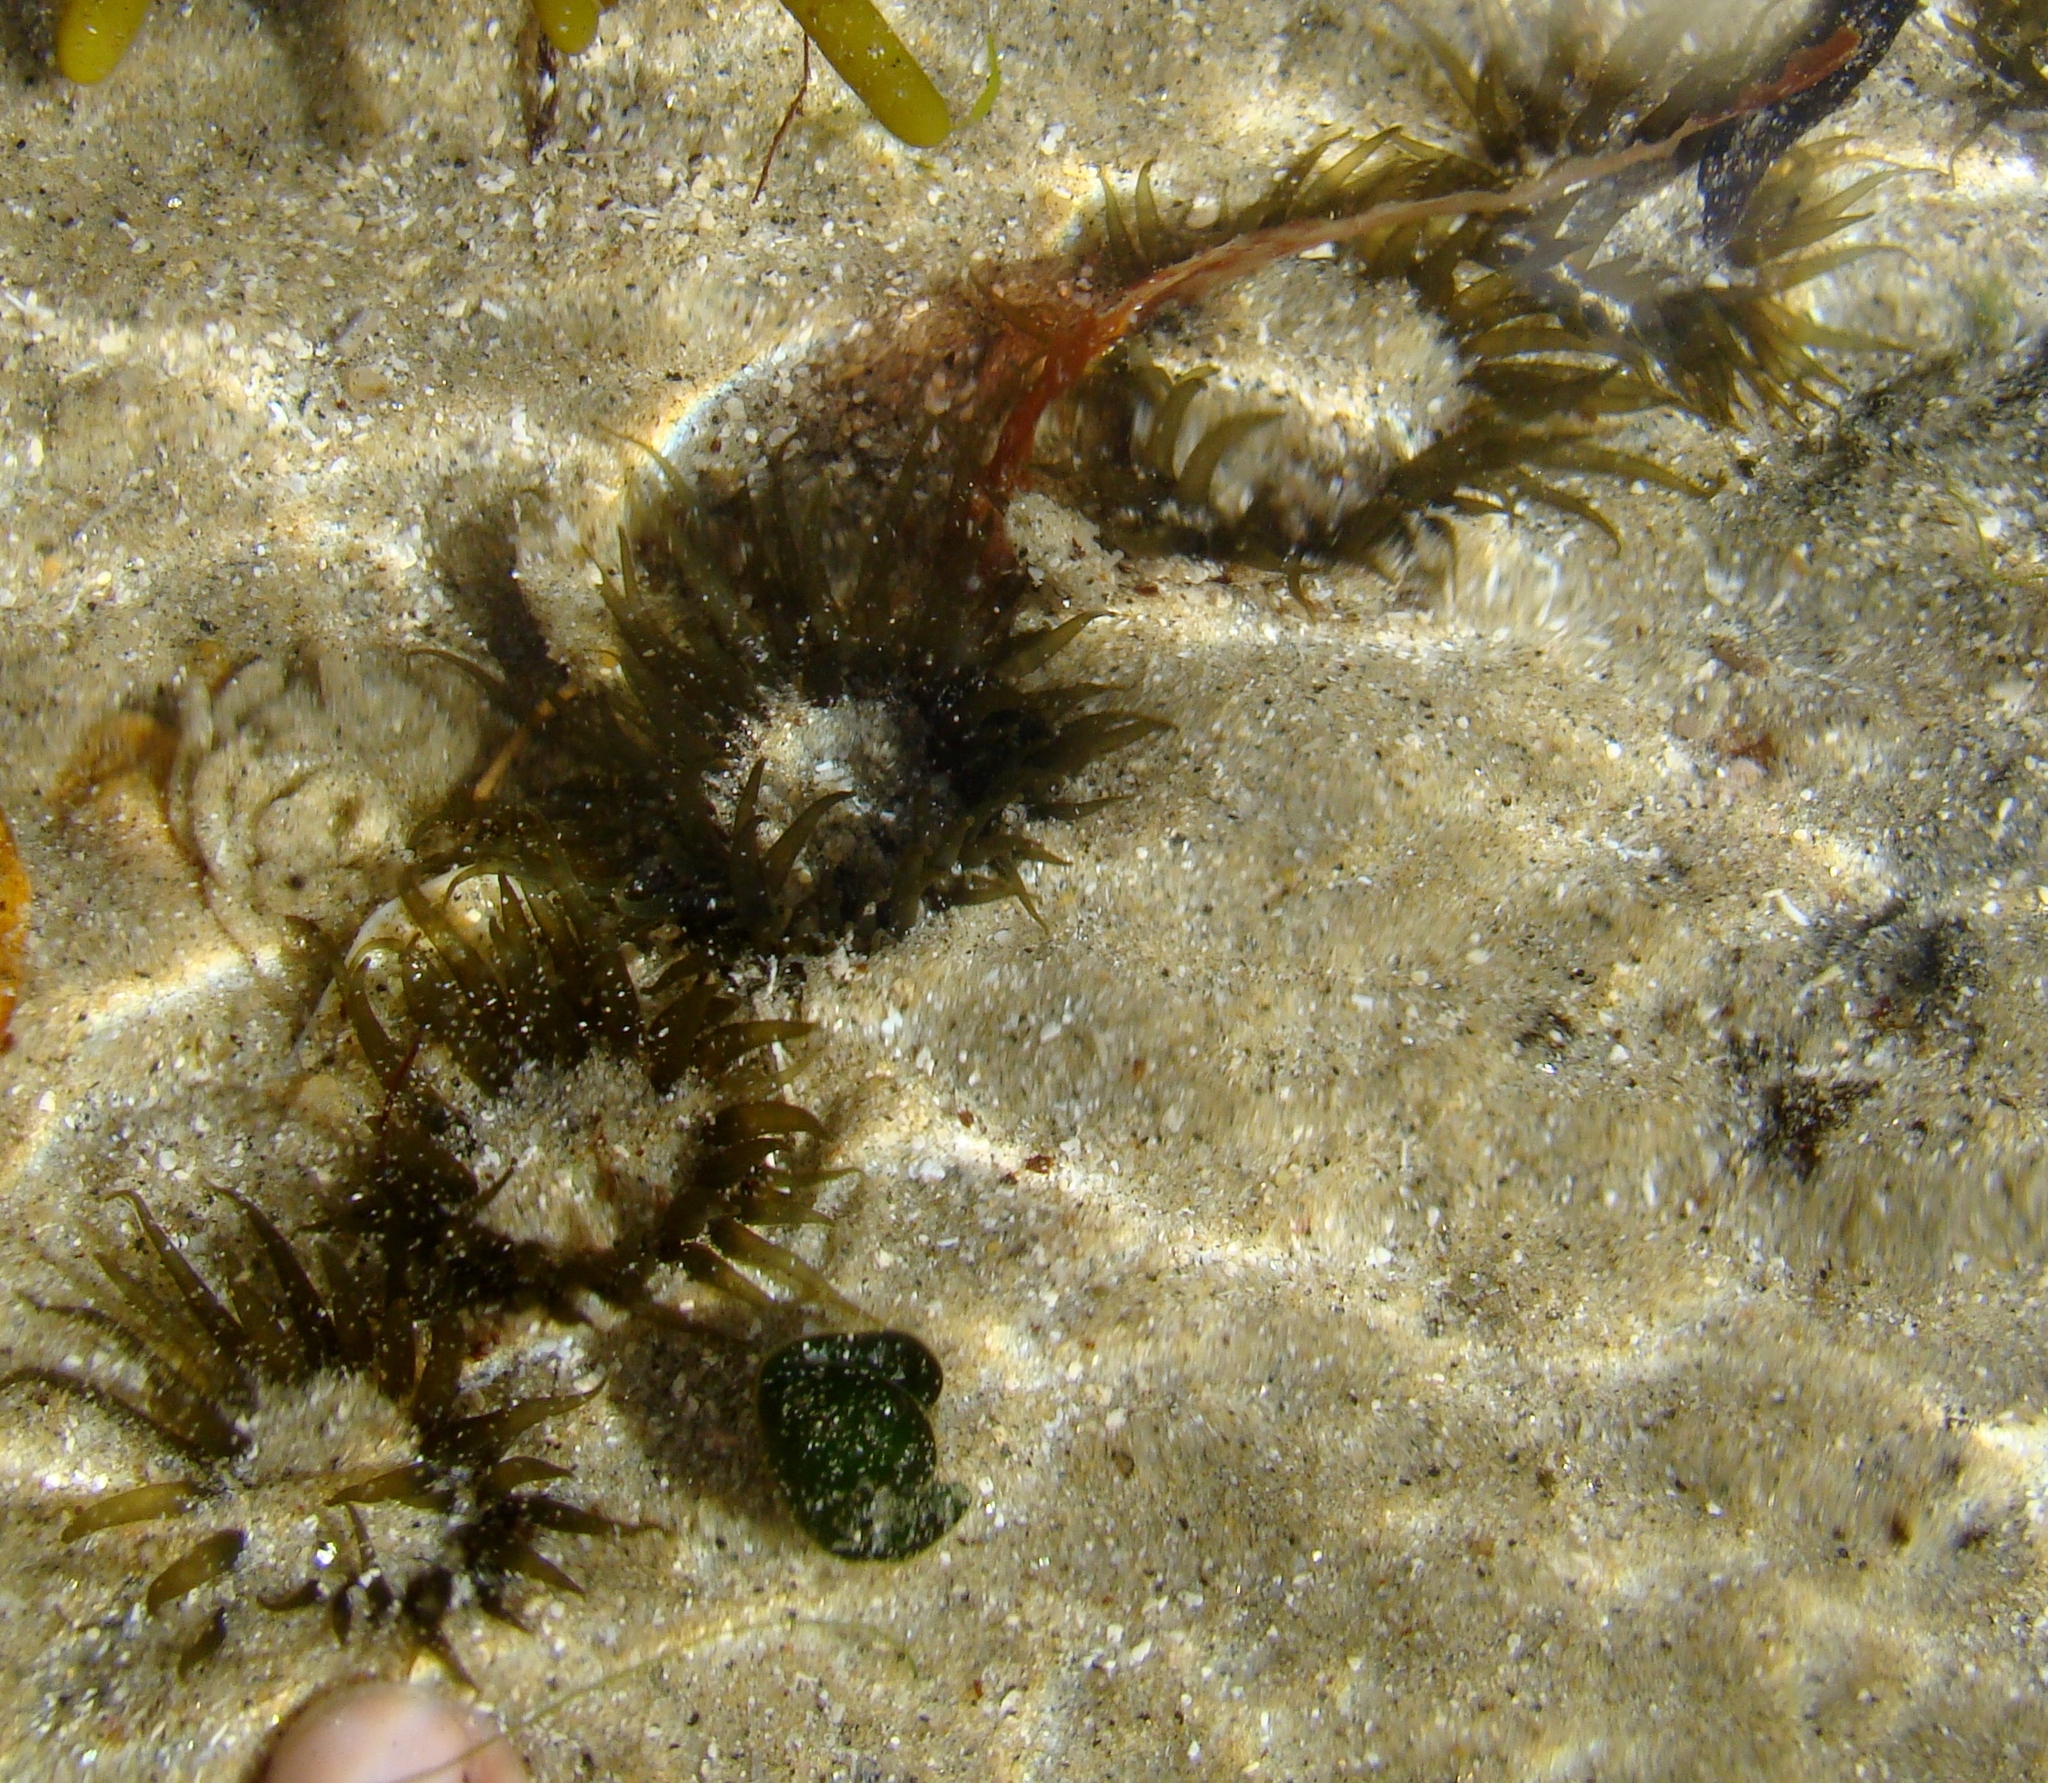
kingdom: Animalia
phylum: Cnidaria
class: Anthozoa
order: Actiniaria
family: Actiniidae
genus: Isactinia
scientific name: Isactinia olivacea
